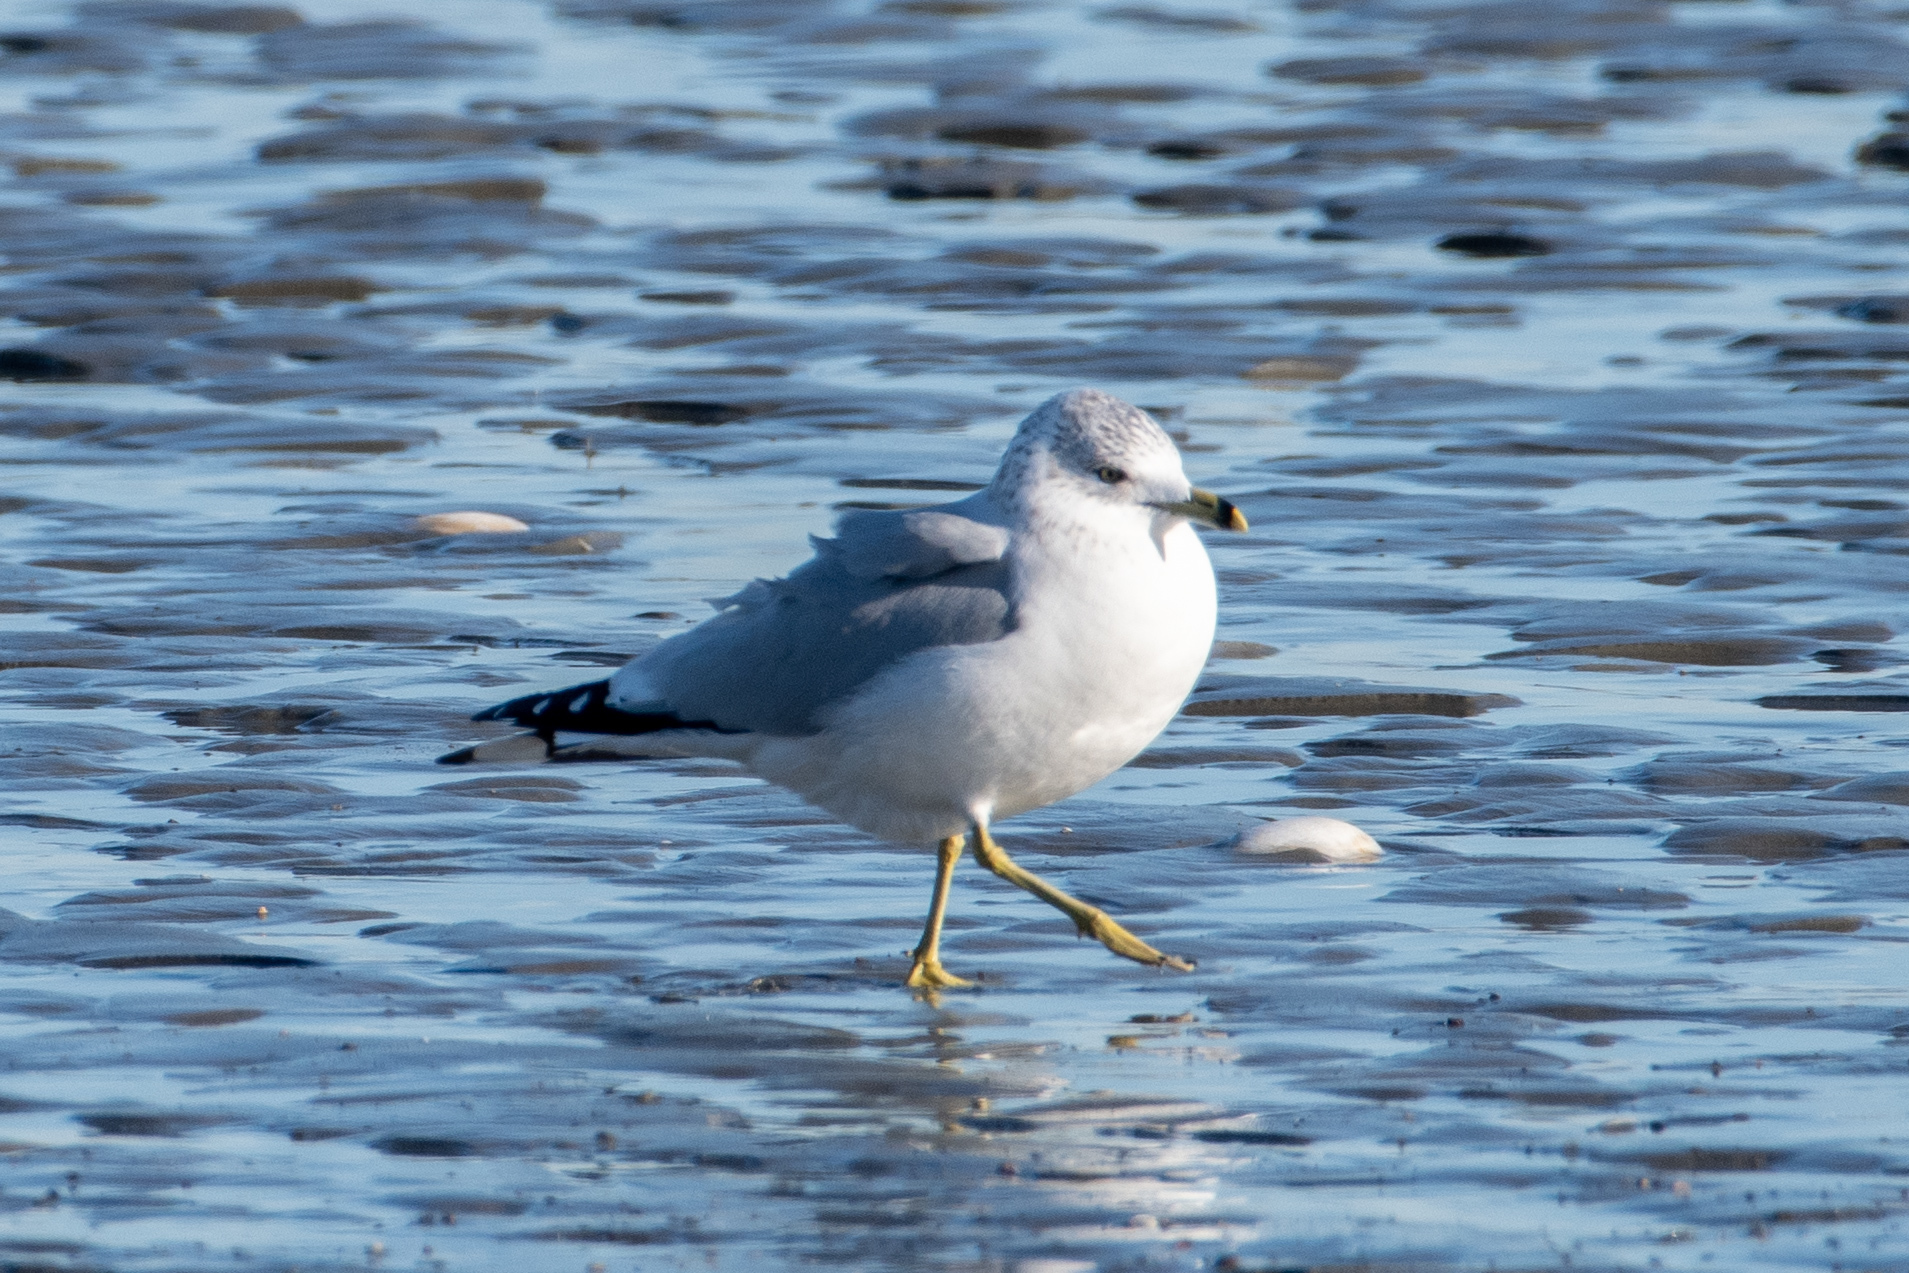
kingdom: Animalia
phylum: Chordata
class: Aves
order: Charadriiformes
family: Laridae
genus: Larus
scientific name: Larus delawarensis
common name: Ring-billed gull
